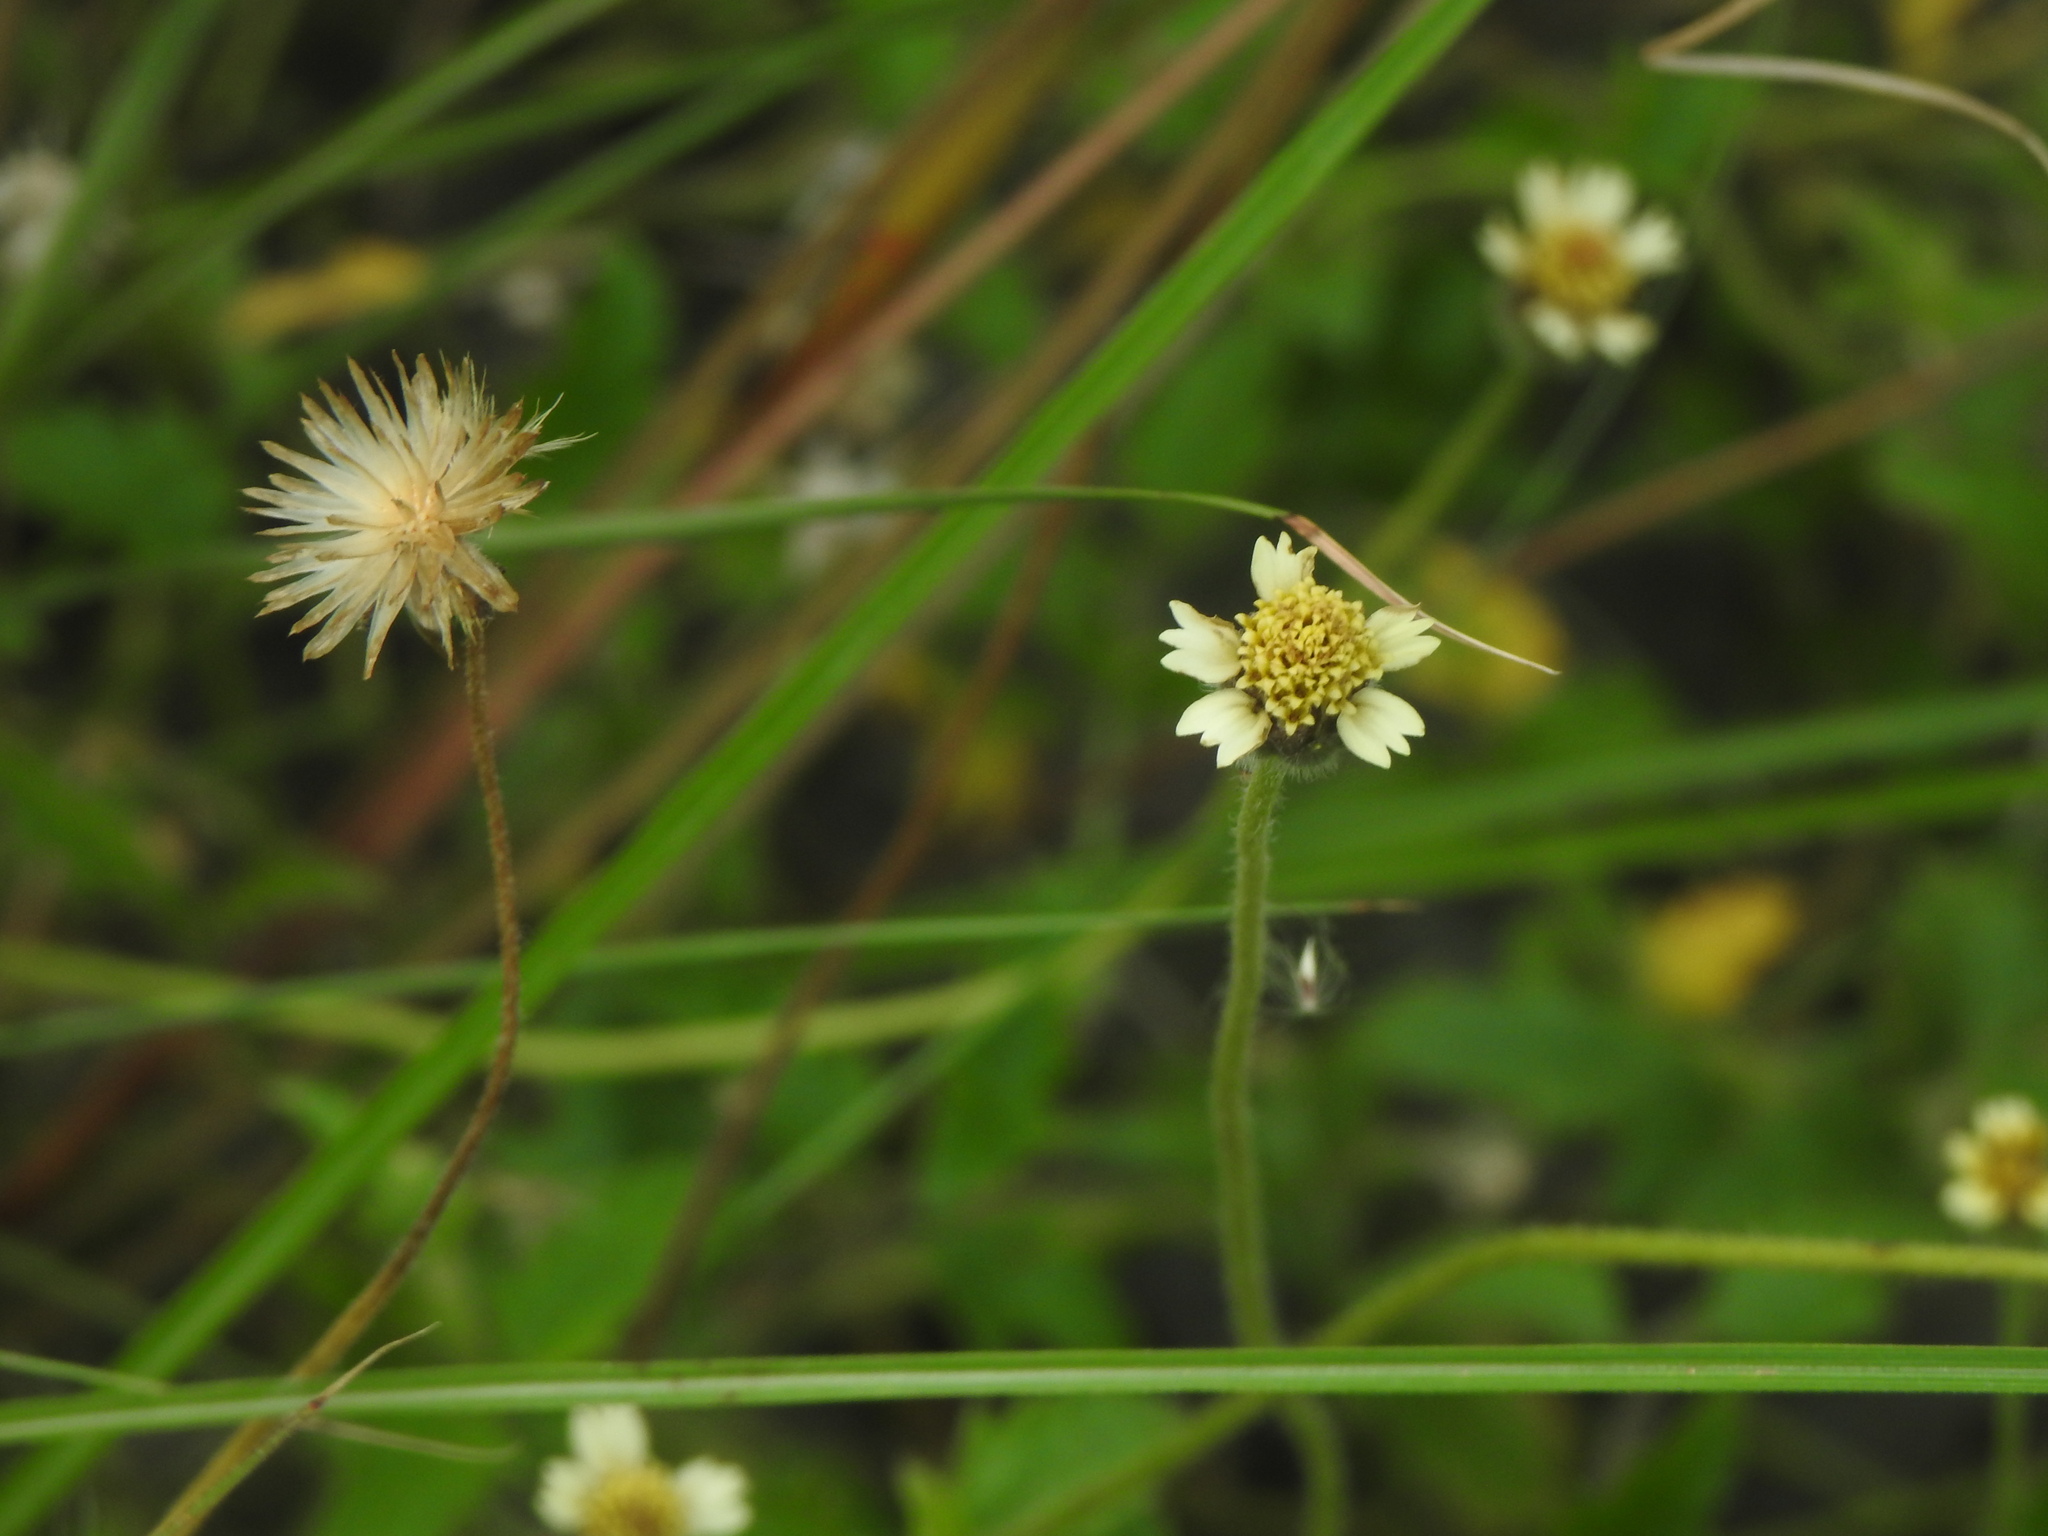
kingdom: Plantae
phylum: Tracheophyta
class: Magnoliopsida
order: Asterales
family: Asteraceae
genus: Tridax
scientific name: Tridax procumbens
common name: Coatbuttons
